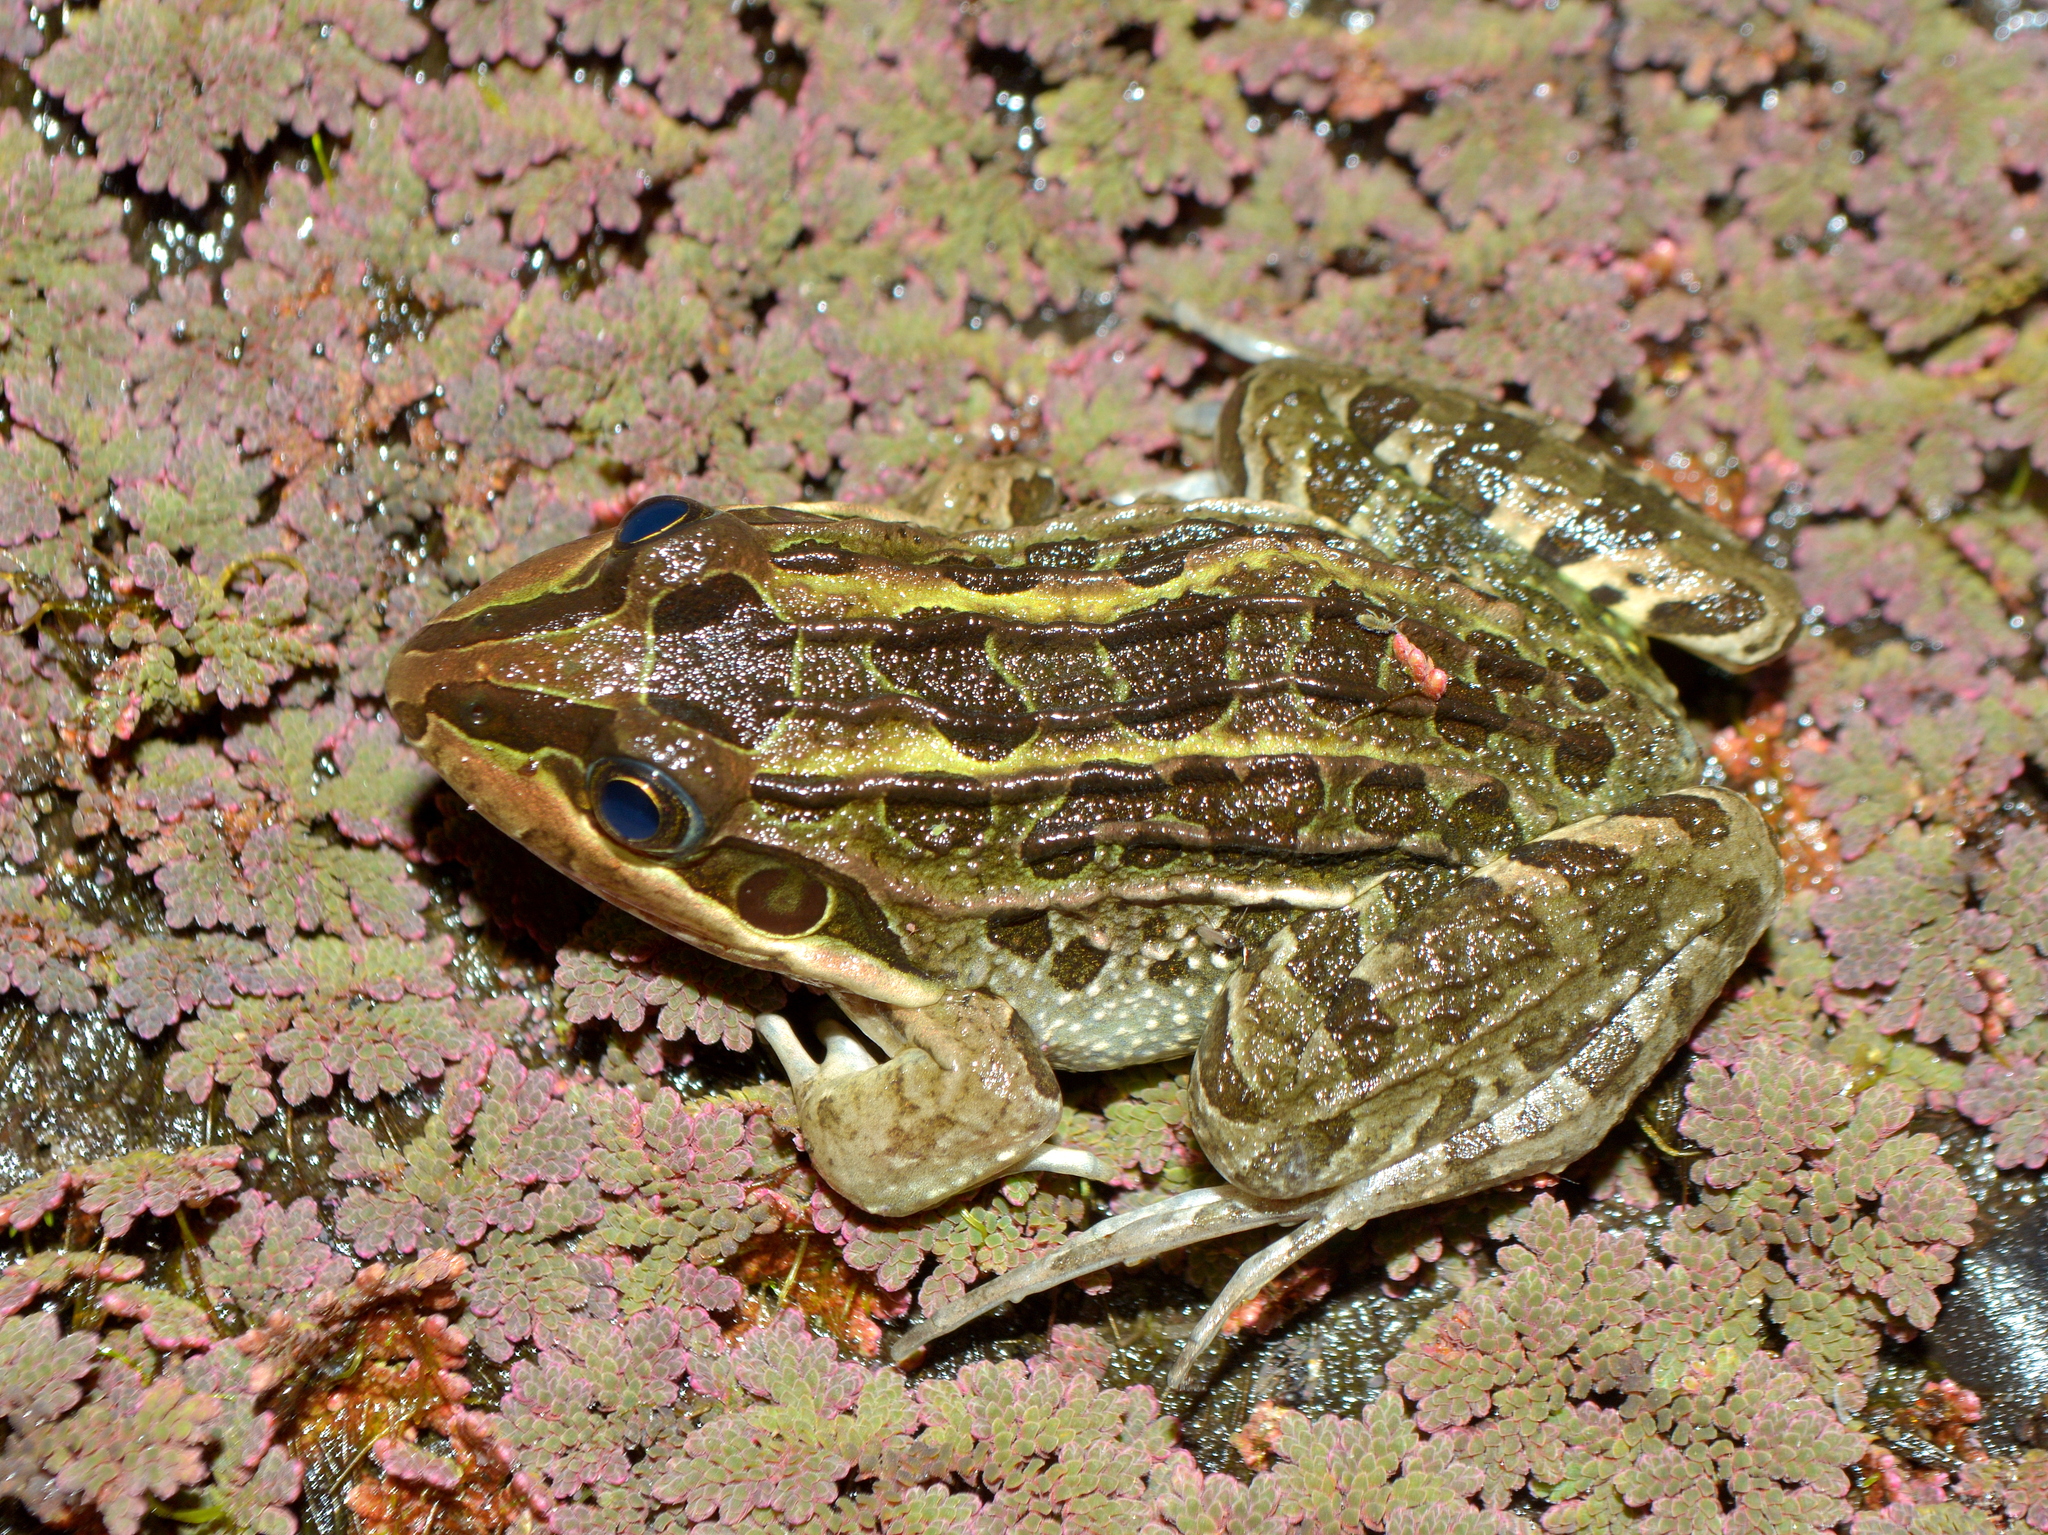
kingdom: Animalia
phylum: Chordata
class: Amphibia
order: Anura
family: Leptodactylidae
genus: Leptodactylus
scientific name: Leptodactylus luctator
